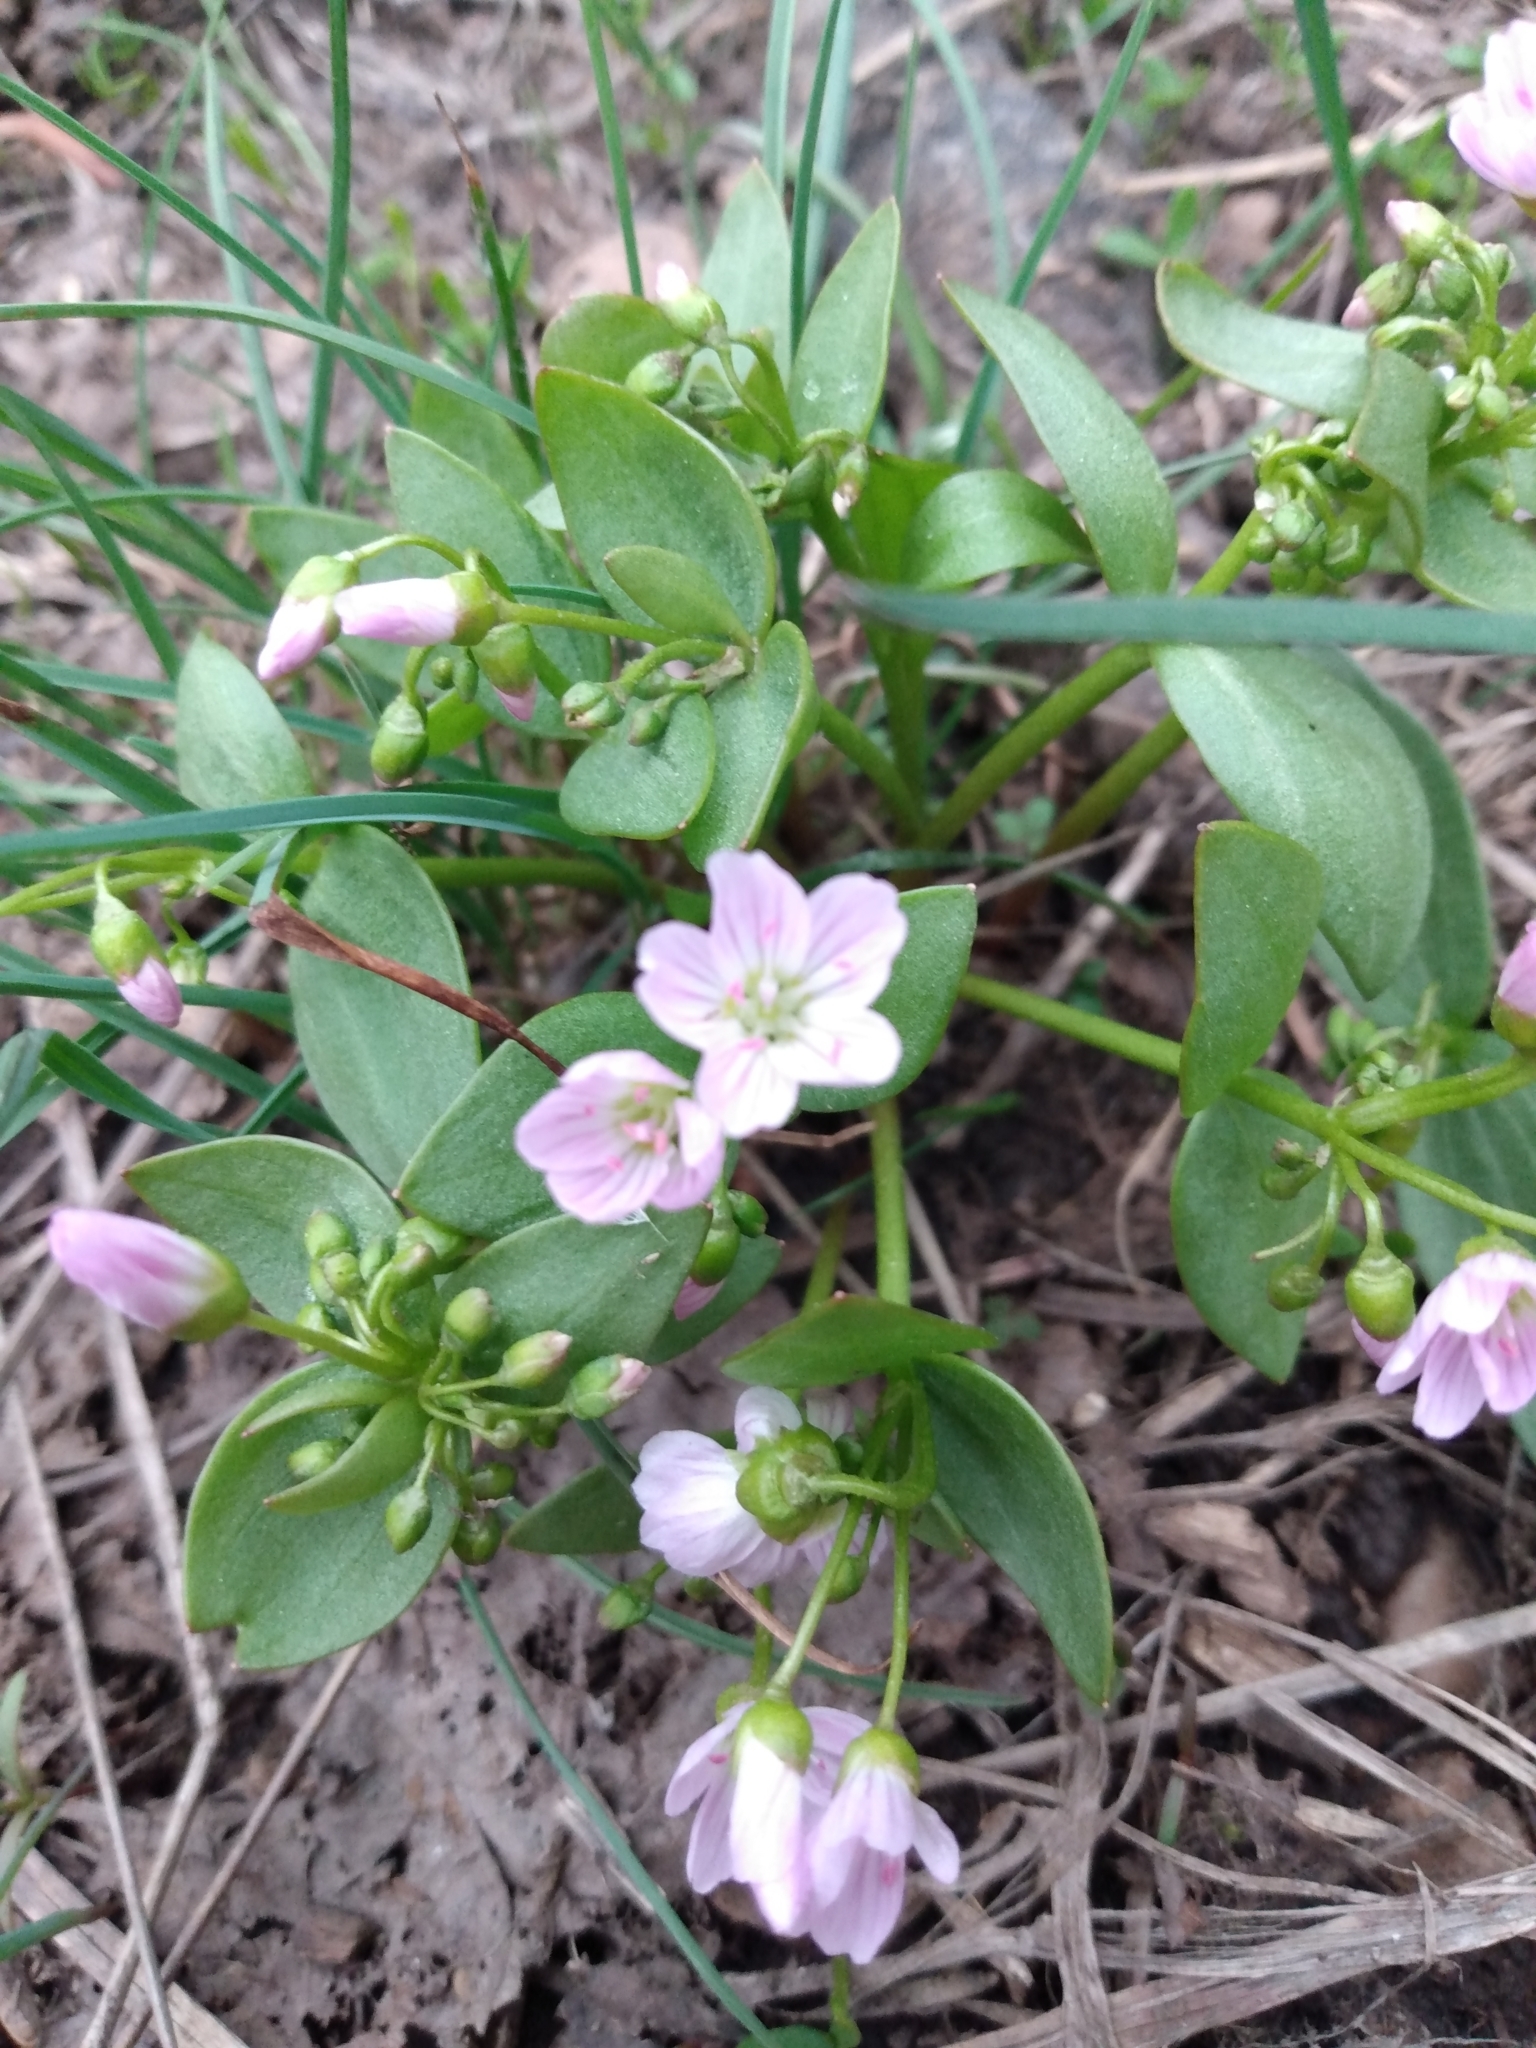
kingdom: Plantae
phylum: Tracheophyta
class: Magnoliopsida
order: Caryophyllales
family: Montiaceae
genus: Claytonia
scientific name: Claytonia lanceolata
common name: Western spring-beauty
